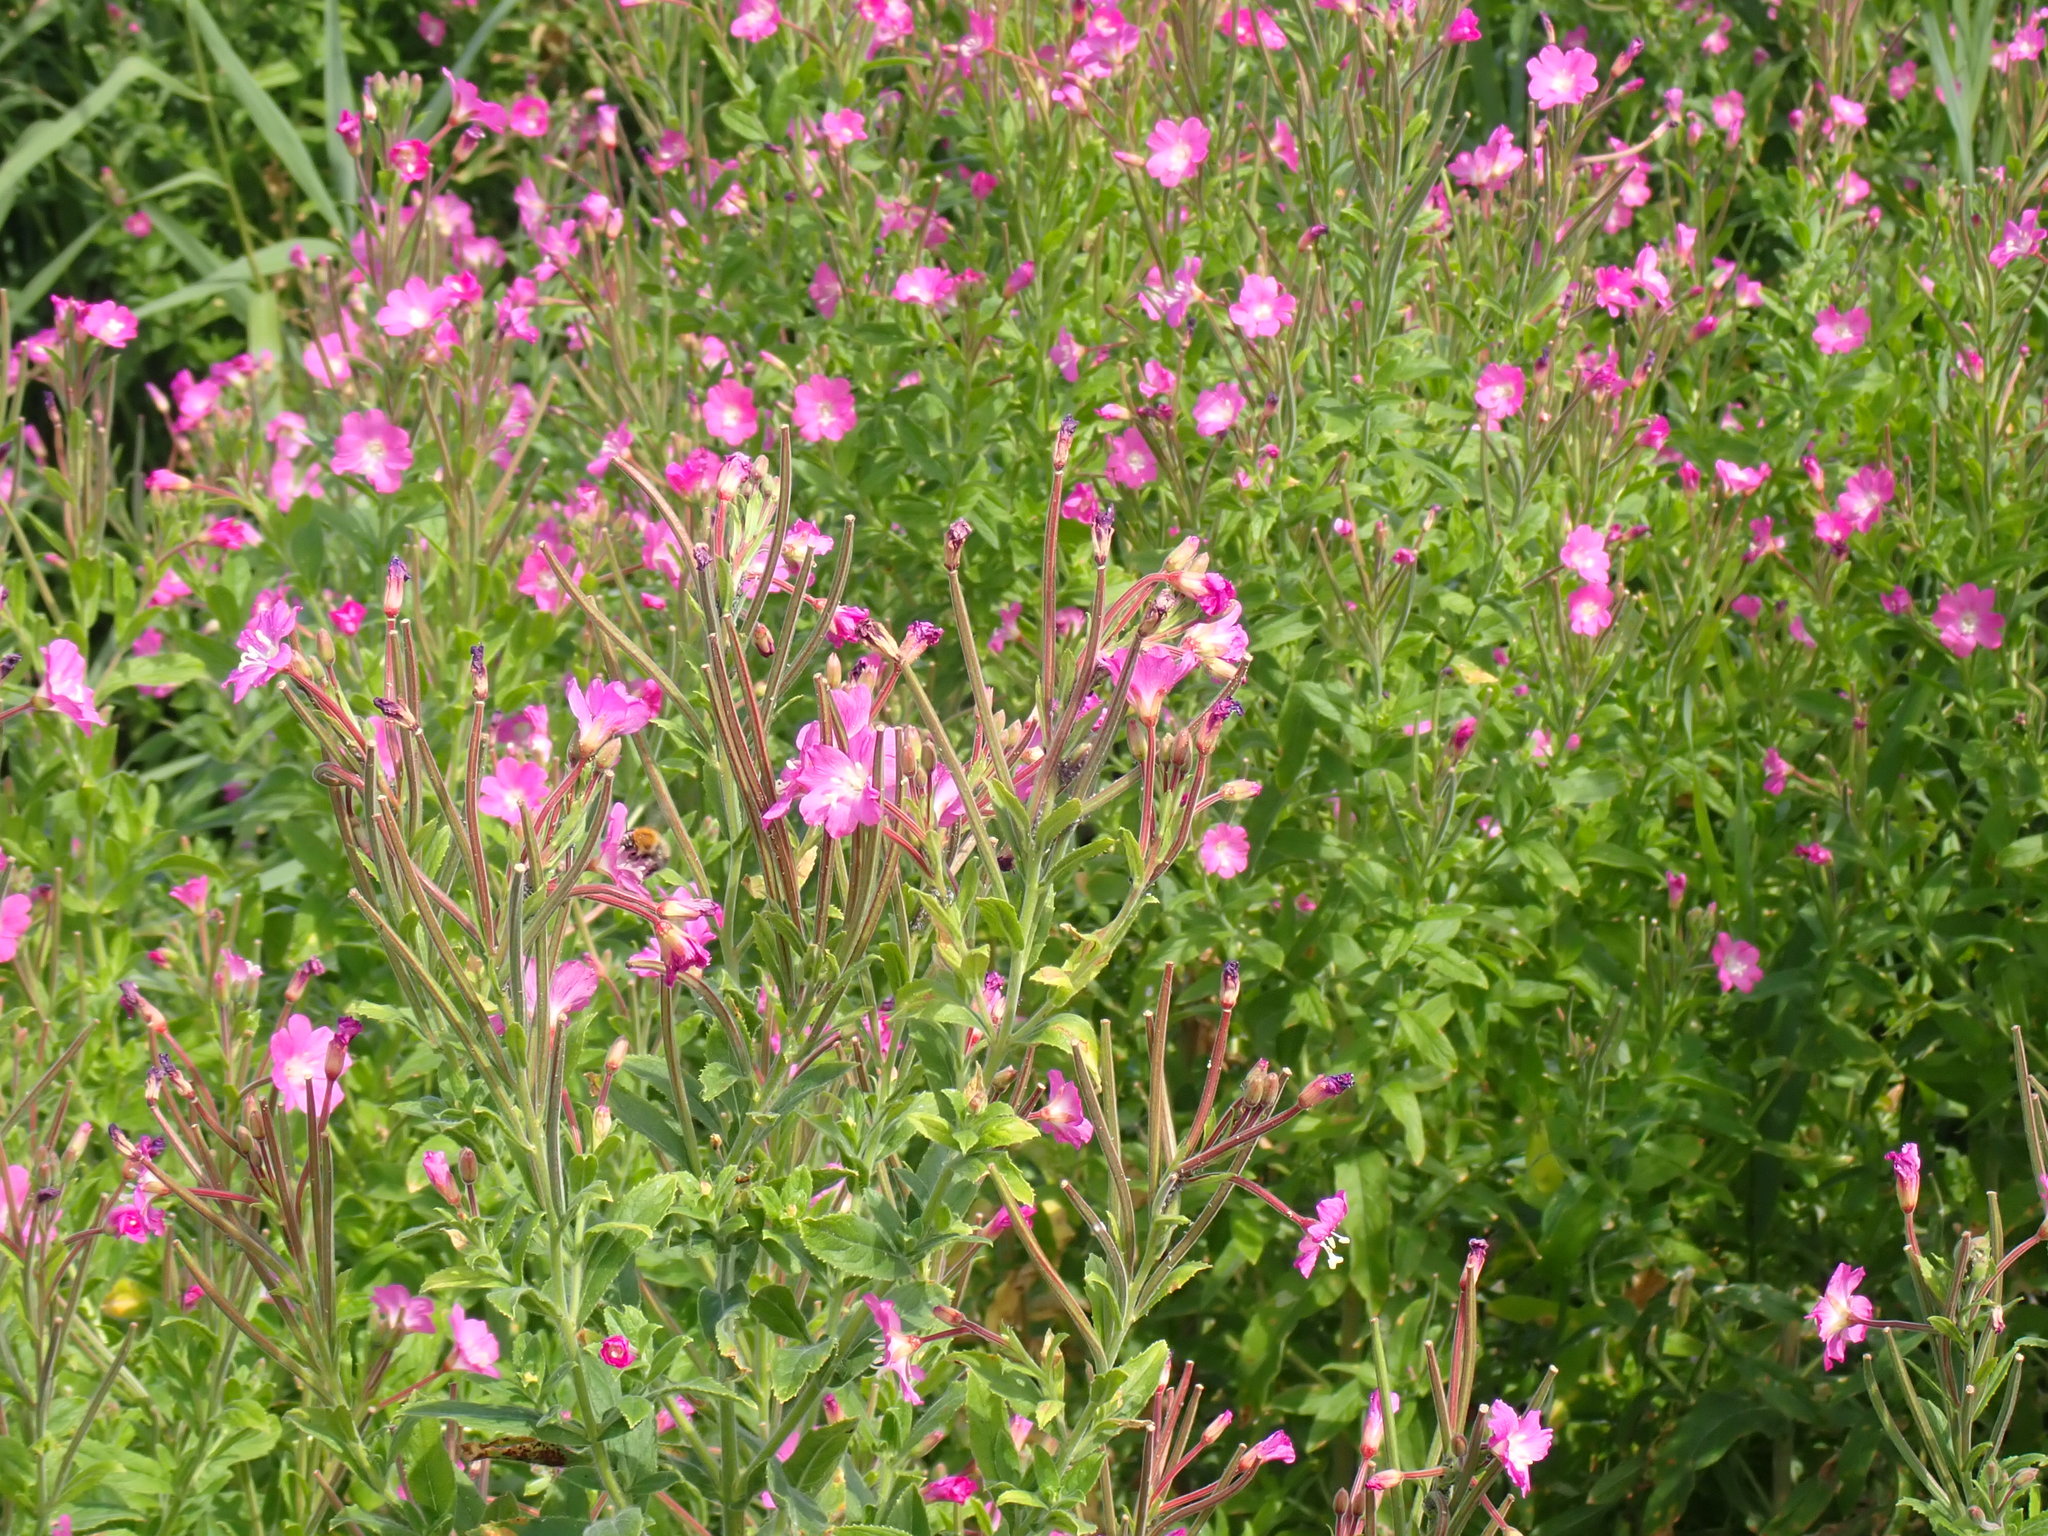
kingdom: Plantae
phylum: Tracheophyta
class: Magnoliopsida
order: Myrtales
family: Onagraceae
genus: Epilobium
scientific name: Epilobium hirsutum
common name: Great willowherb
